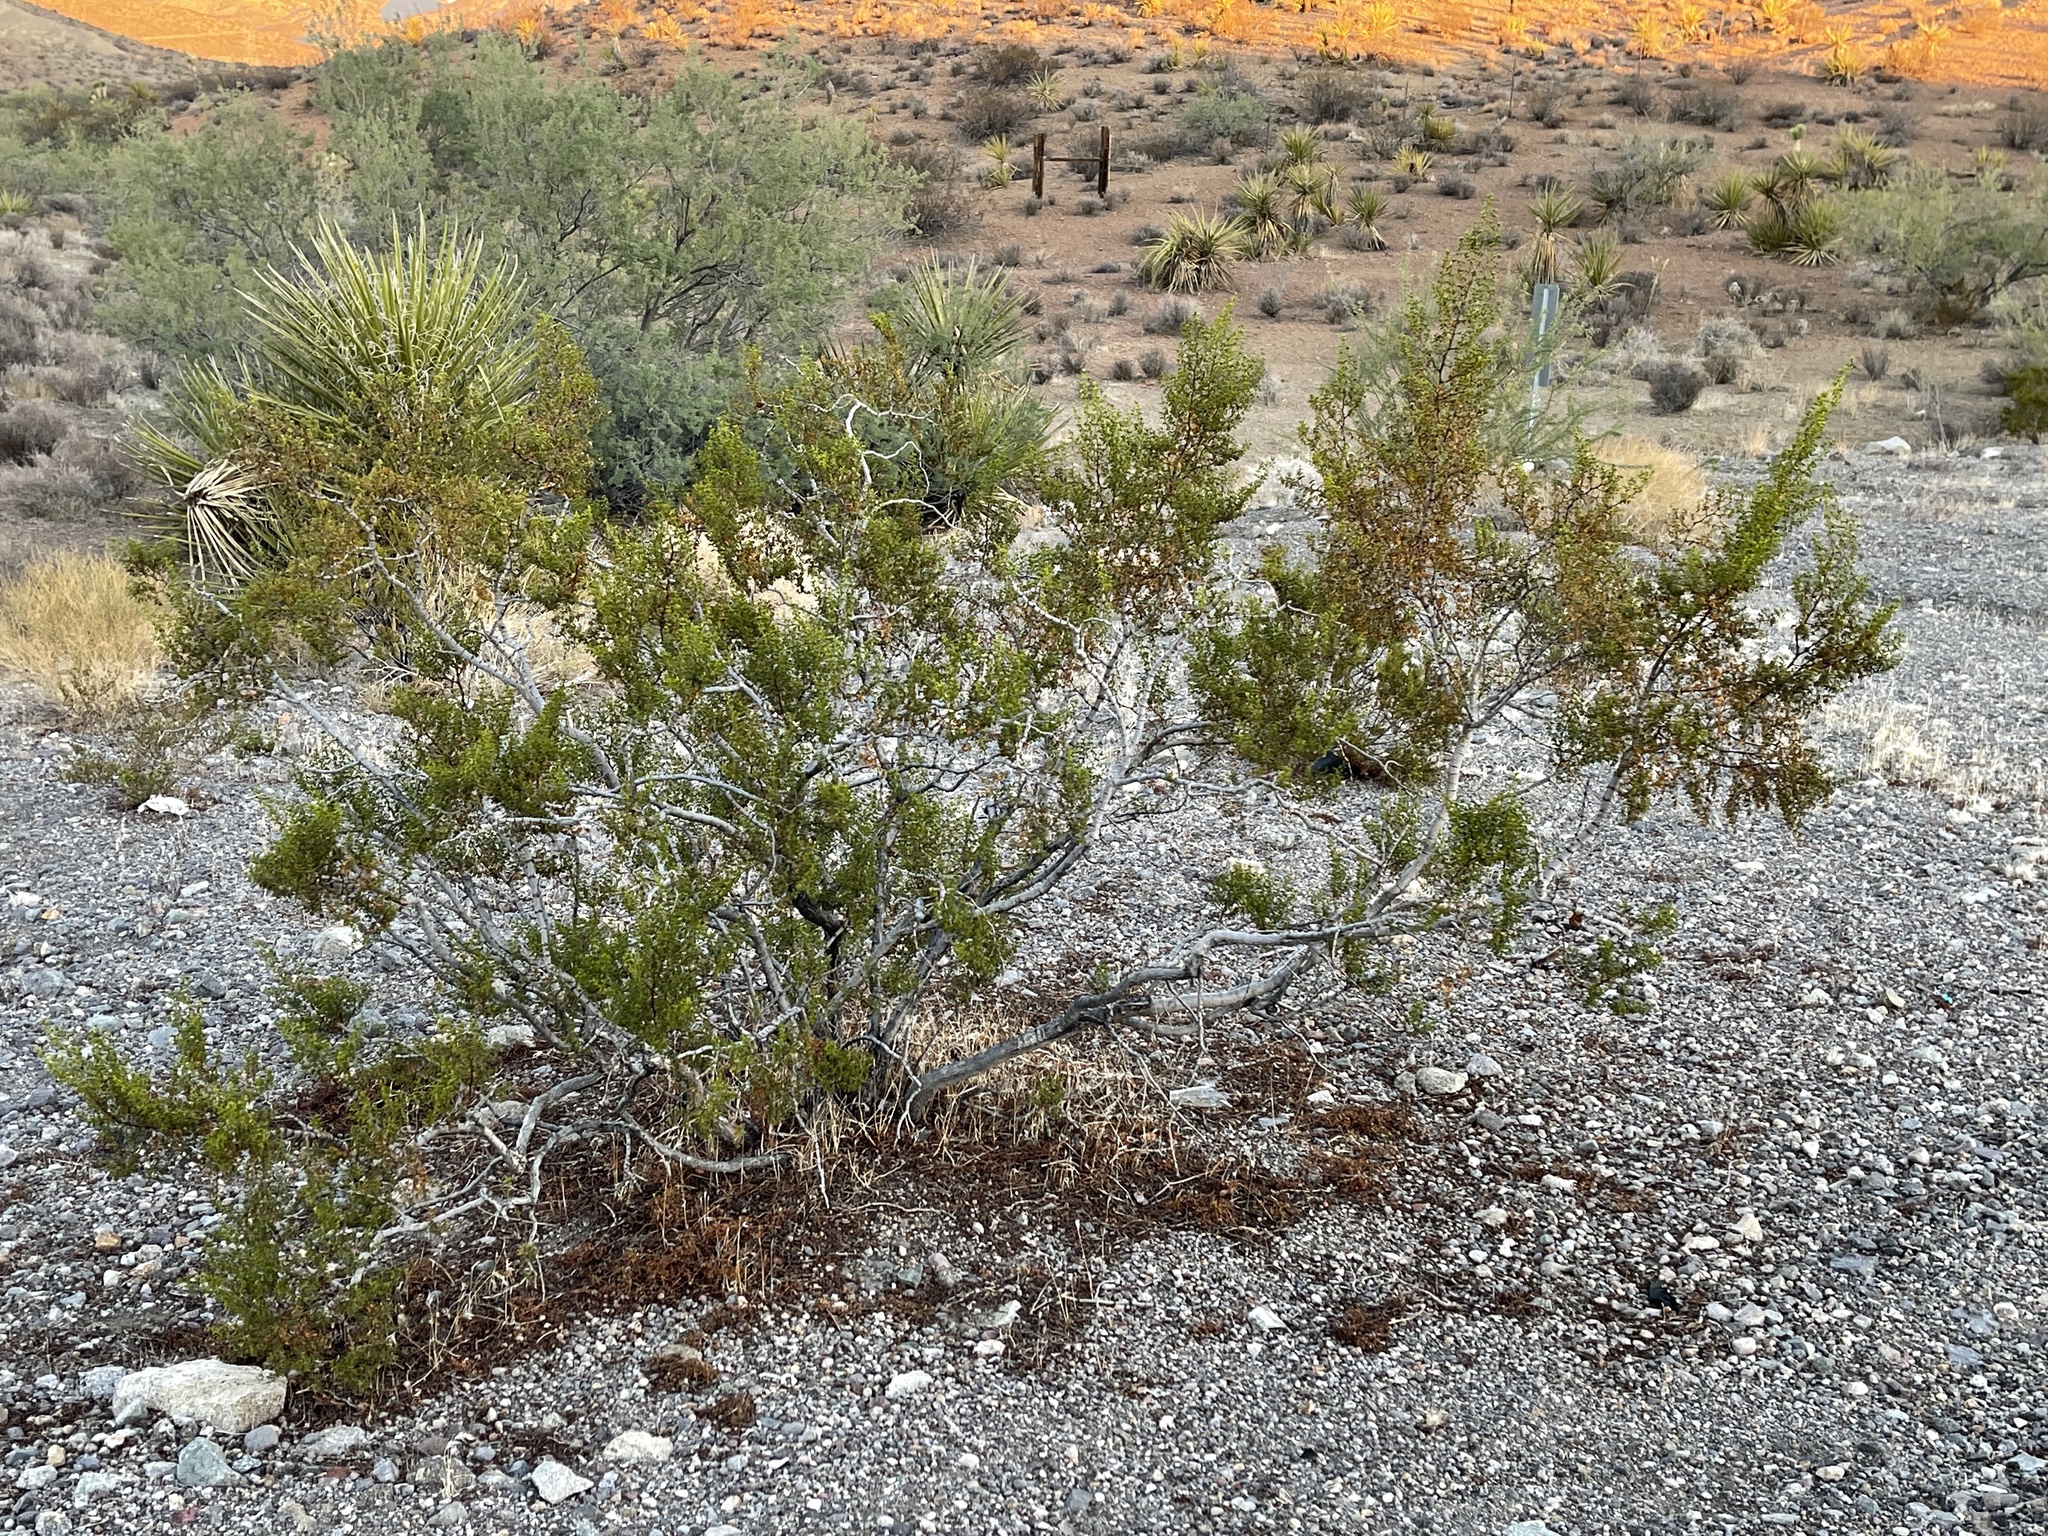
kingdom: Plantae
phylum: Tracheophyta
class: Magnoliopsida
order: Zygophyllales
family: Zygophyllaceae
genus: Larrea
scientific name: Larrea tridentata
